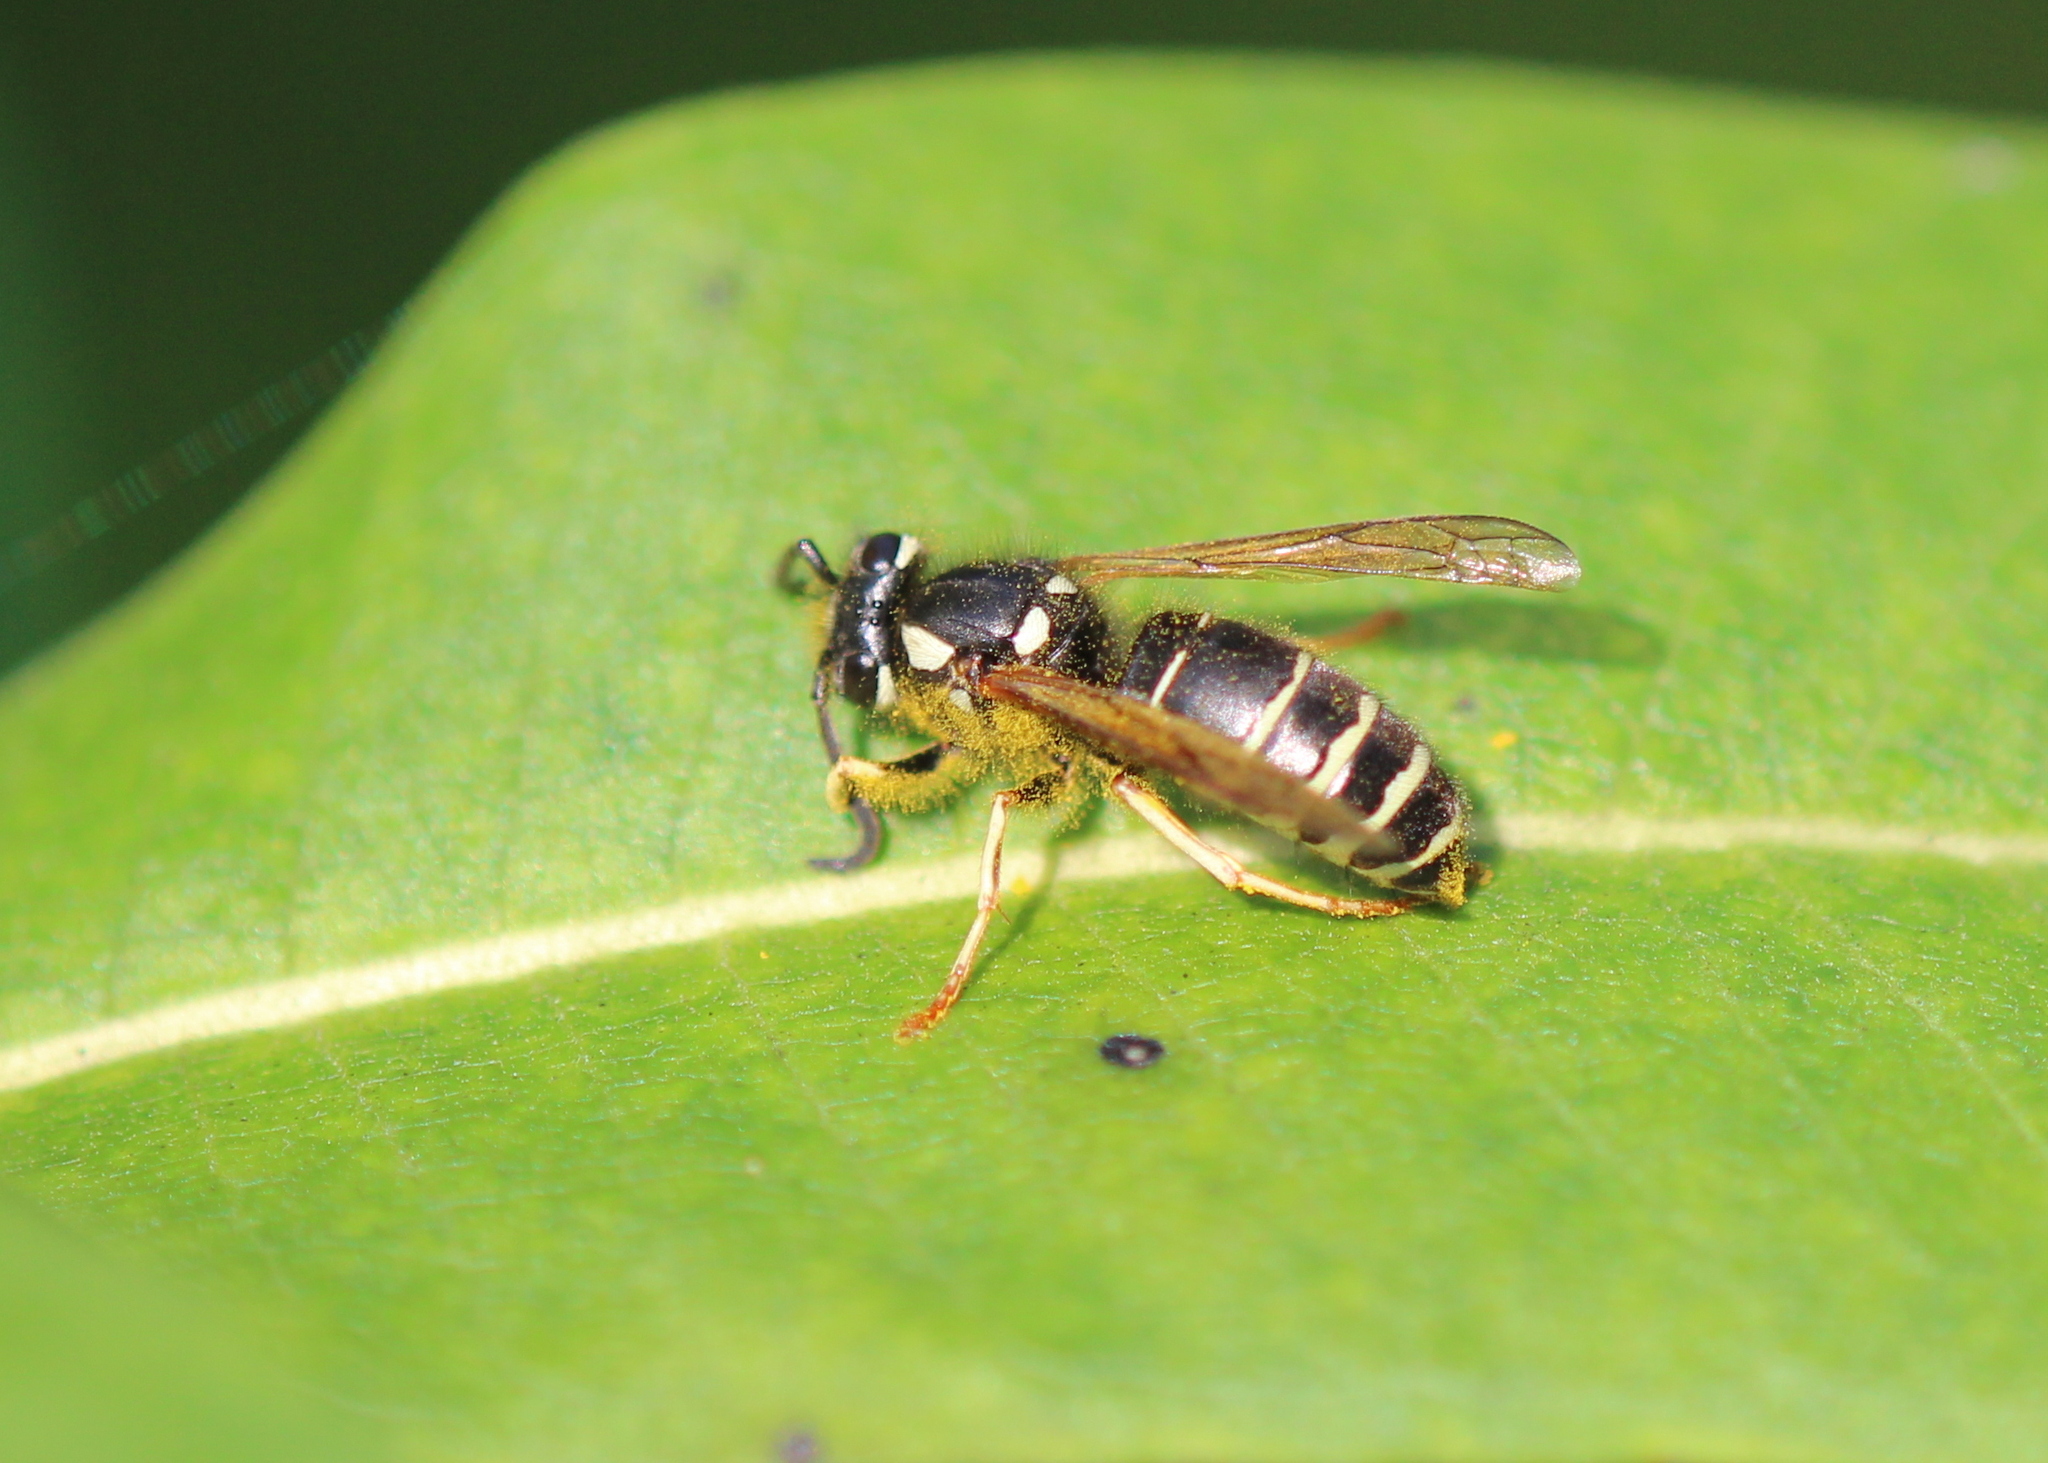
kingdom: Animalia
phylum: Arthropoda
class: Insecta
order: Hymenoptera
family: Vespidae
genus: Vespula
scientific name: Vespula consobrina
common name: Blackjacket
